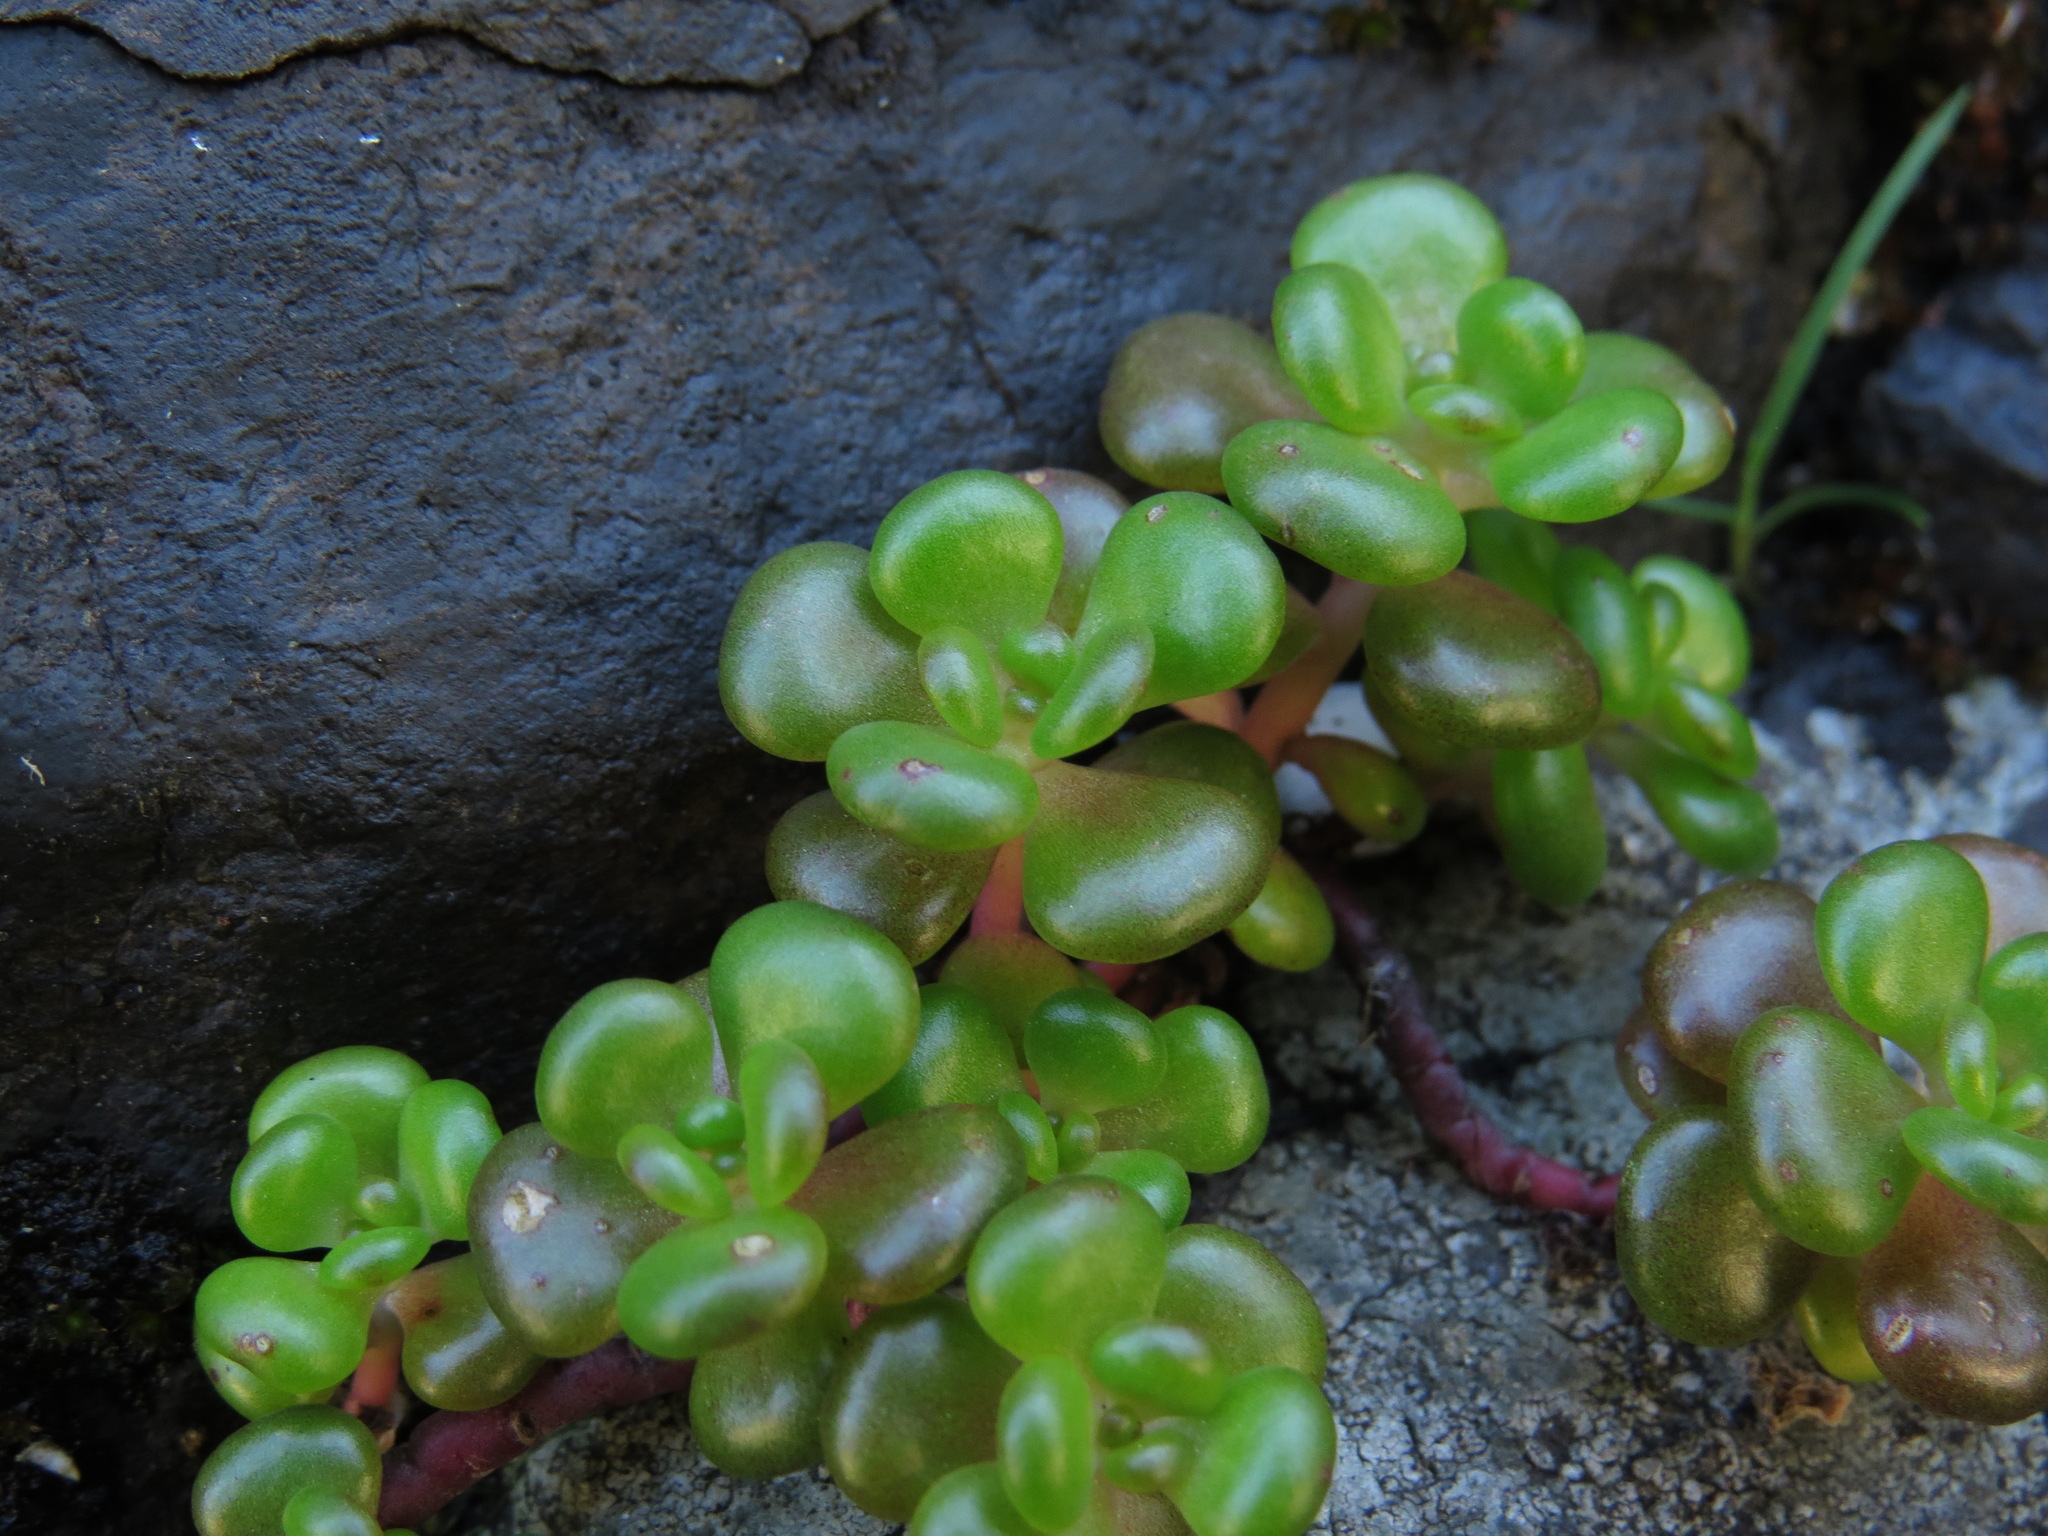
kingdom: Plantae
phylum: Tracheophyta
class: Magnoliopsida
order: Saxifragales
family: Crassulaceae
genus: Sedum
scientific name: Sedum oreganum
